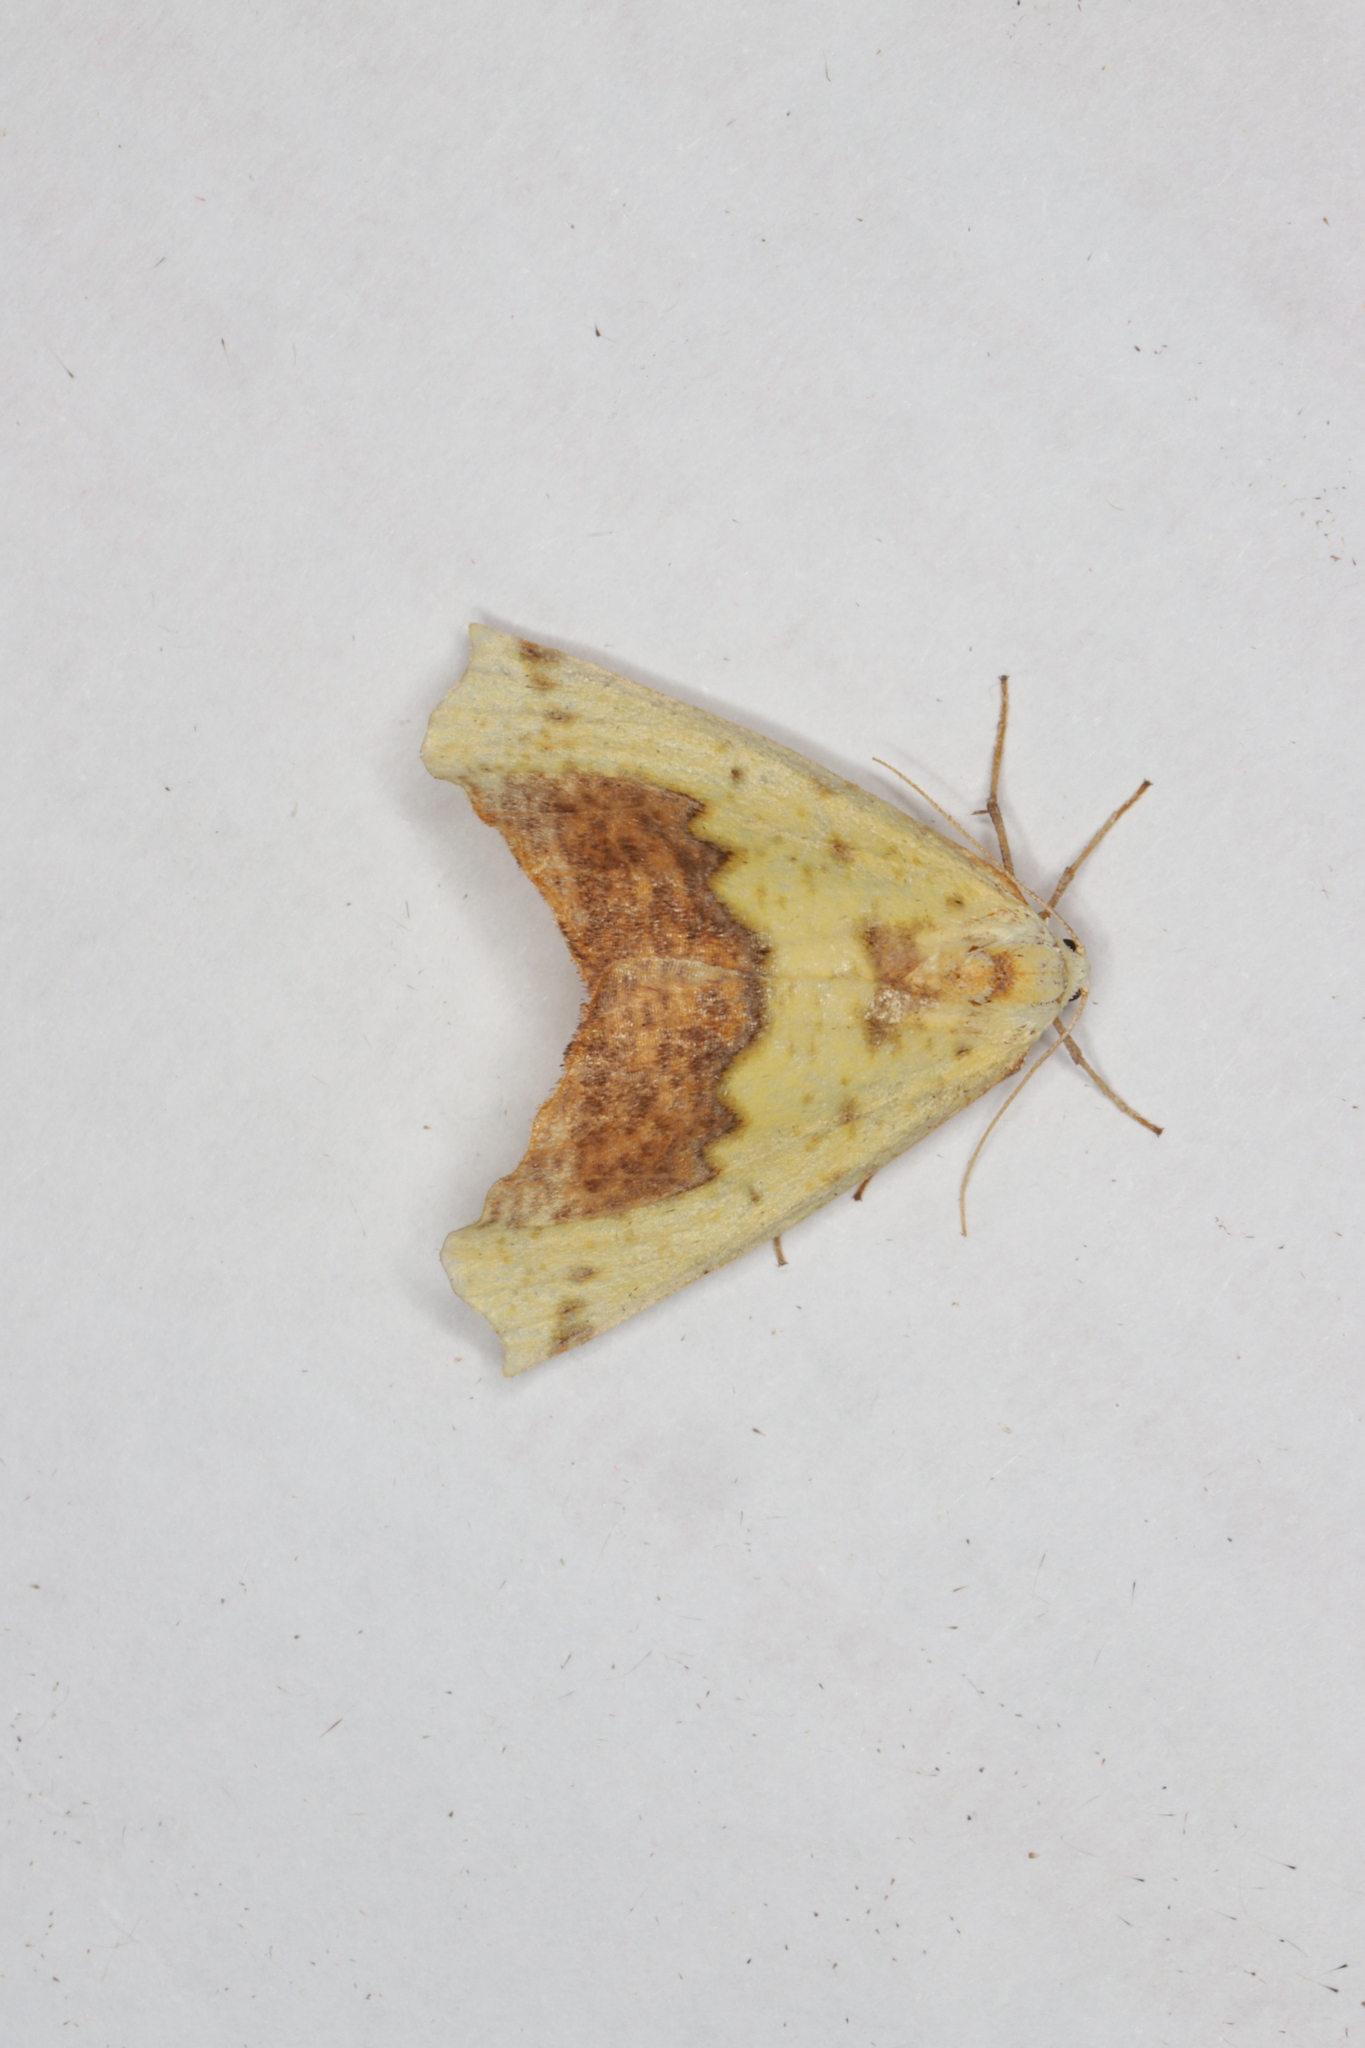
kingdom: Animalia
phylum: Arthropoda
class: Insecta
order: Lepidoptera
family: Geometridae
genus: Sicya
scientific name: Sicya macularia
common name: Sharp-lined yellow
